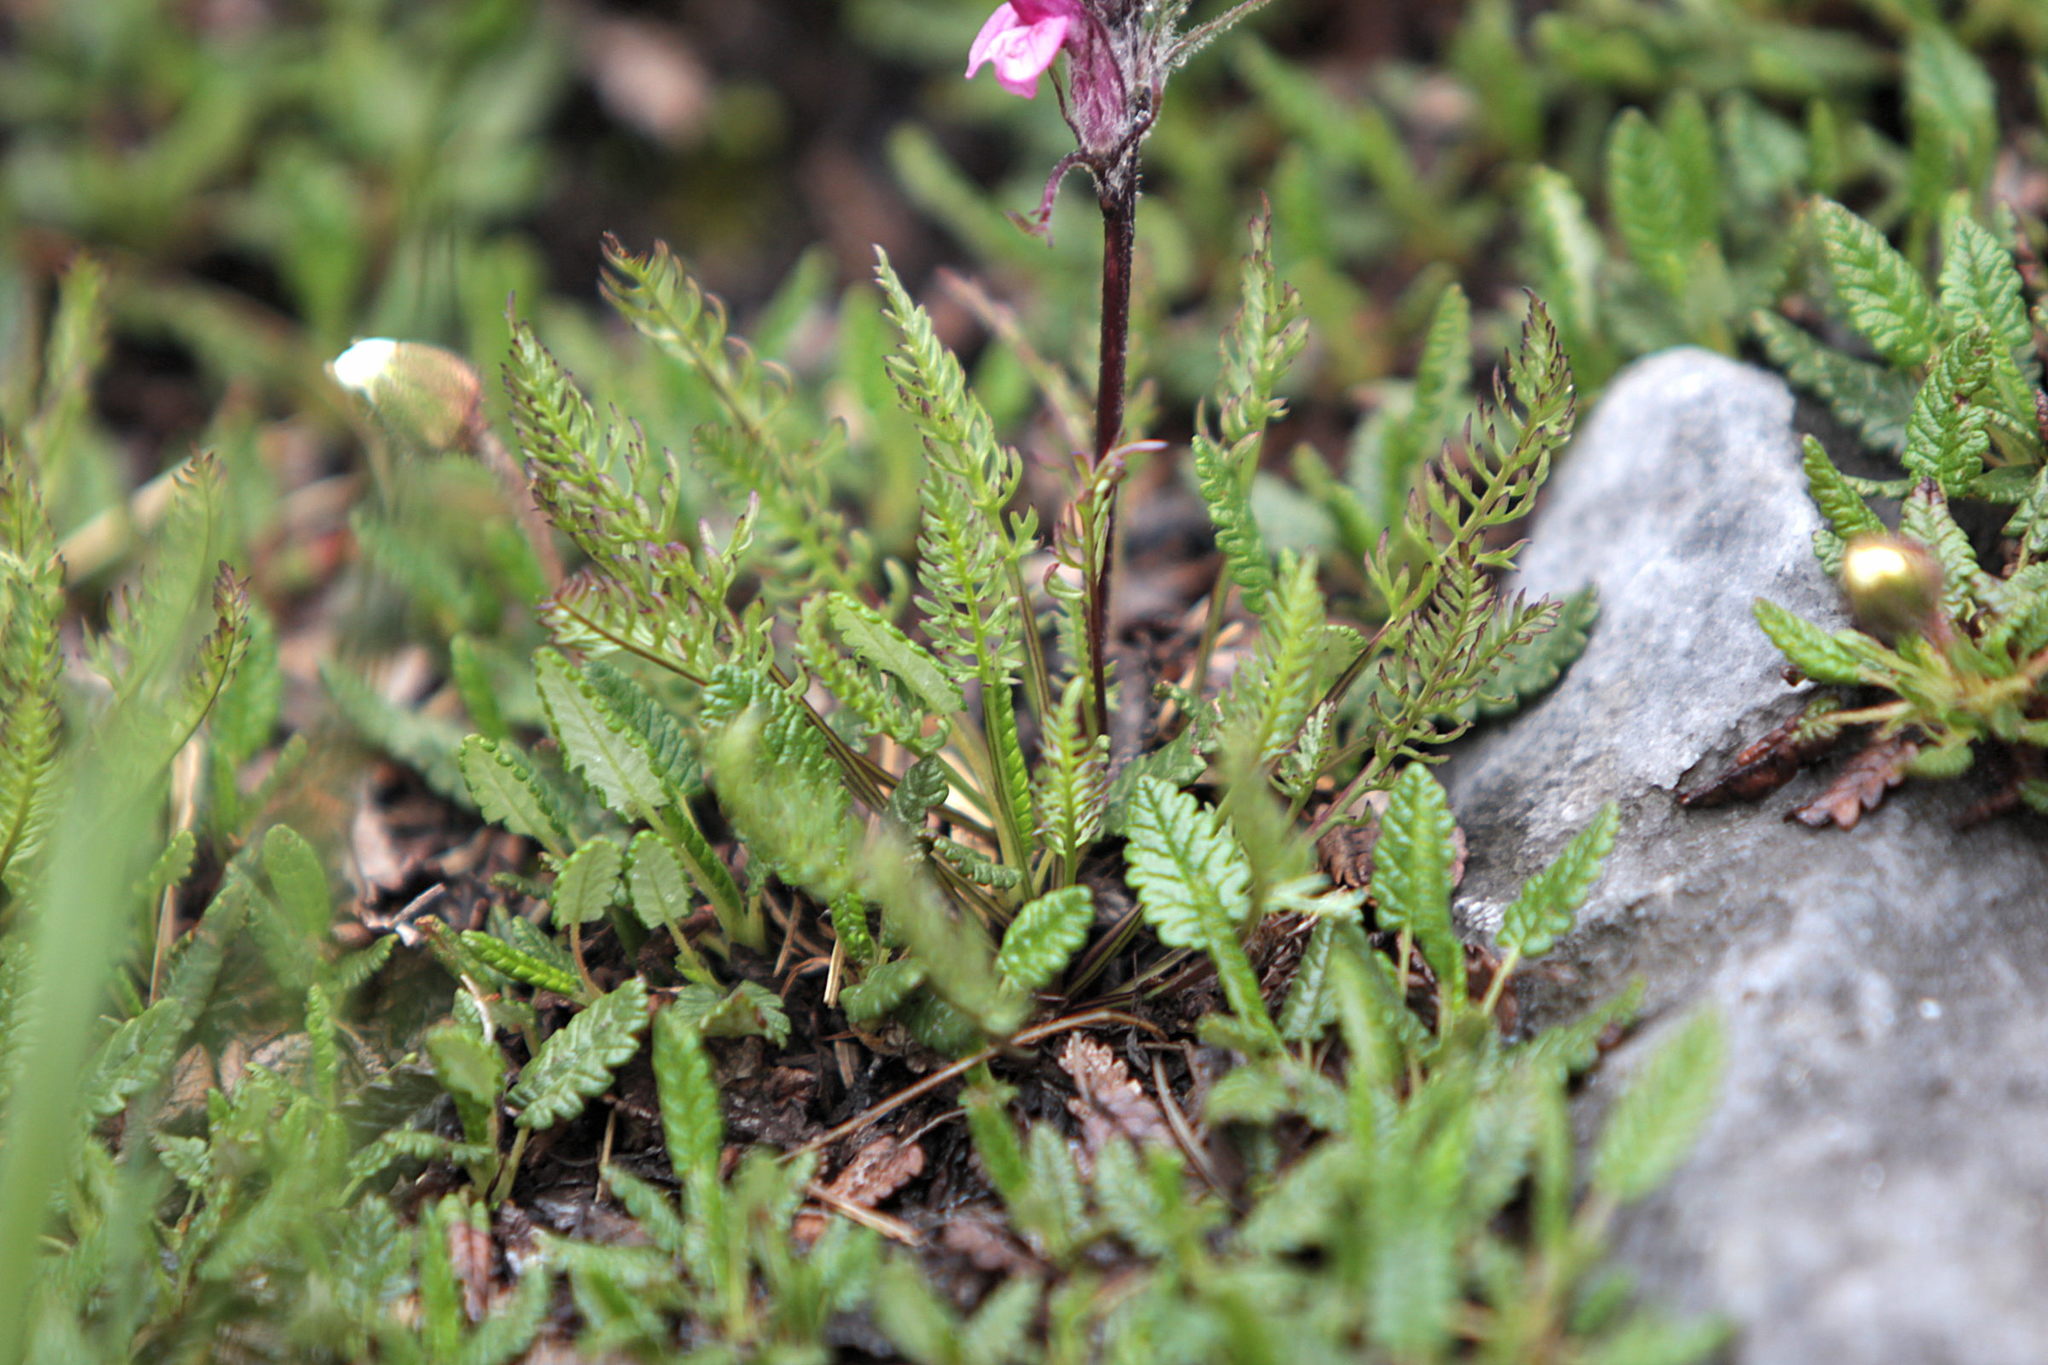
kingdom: Plantae
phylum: Tracheophyta
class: Magnoliopsida
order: Lamiales
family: Orobanchaceae
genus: Pedicularis
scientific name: Pedicularis rosea
